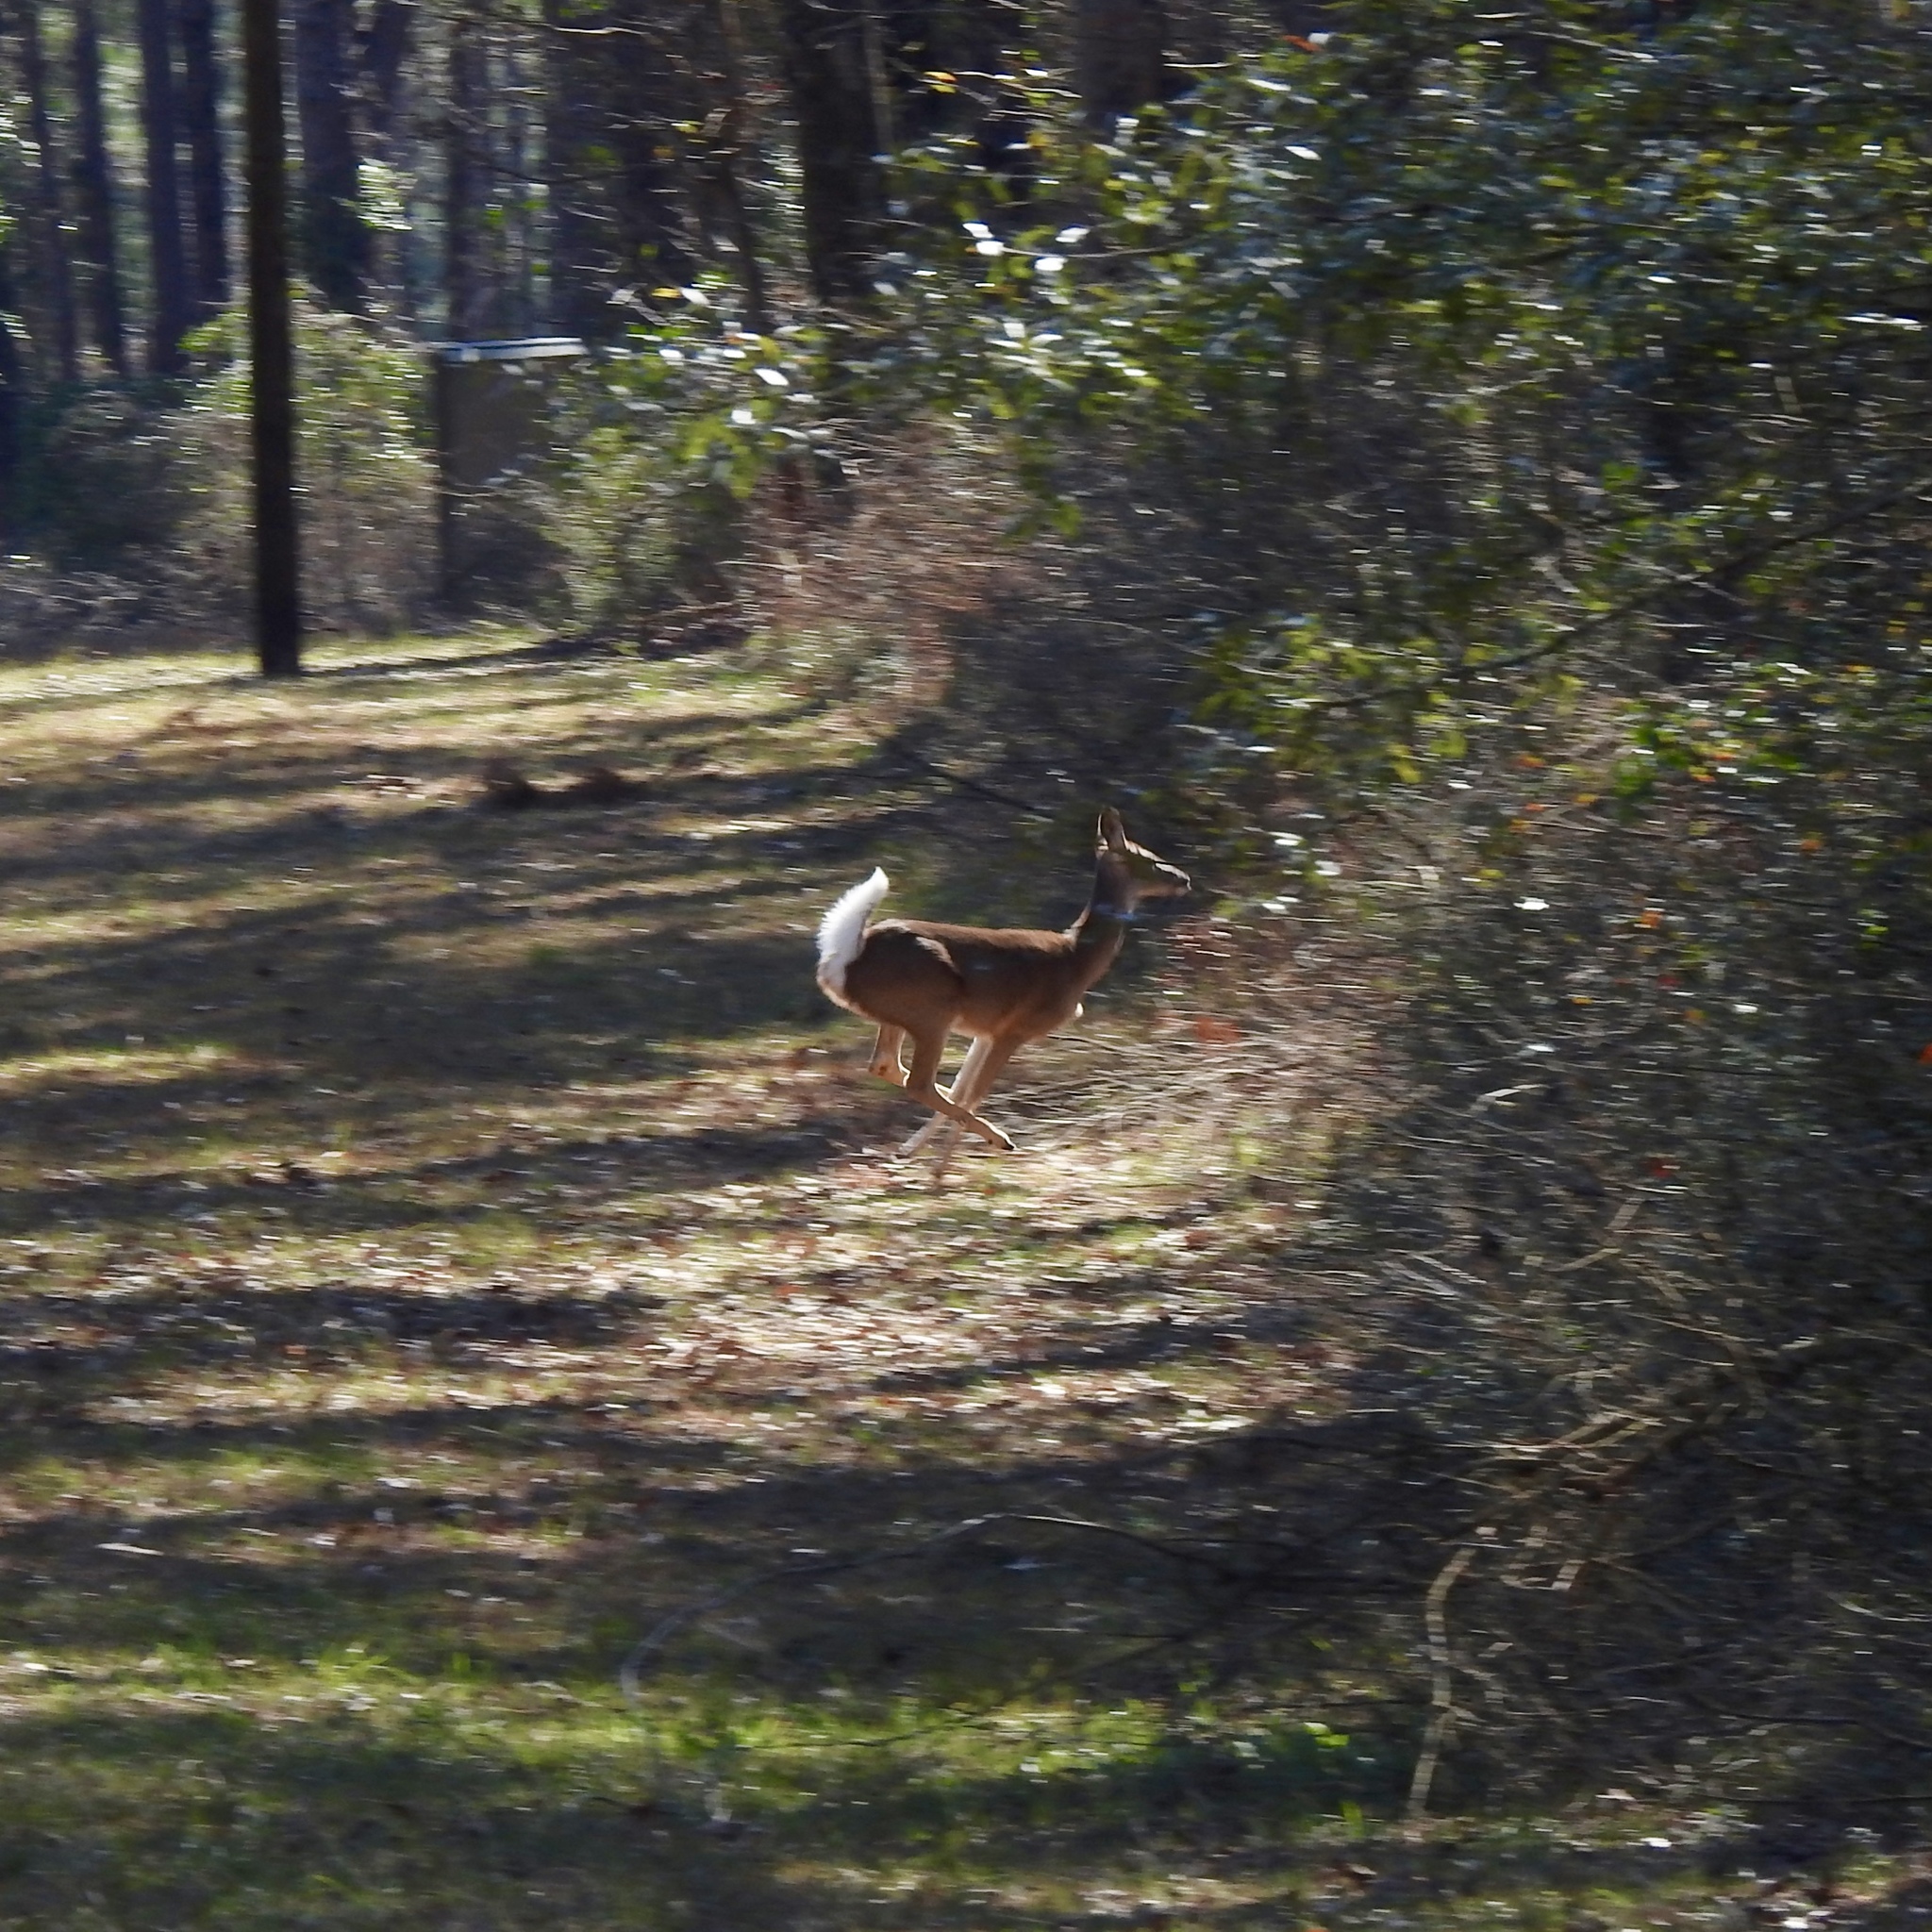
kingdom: Animalia
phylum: Chordata
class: Mammalia
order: Artiodactyla
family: Cervidae
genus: Odocoileus
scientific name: Odocoileus virginianus
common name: White-tailed deer
